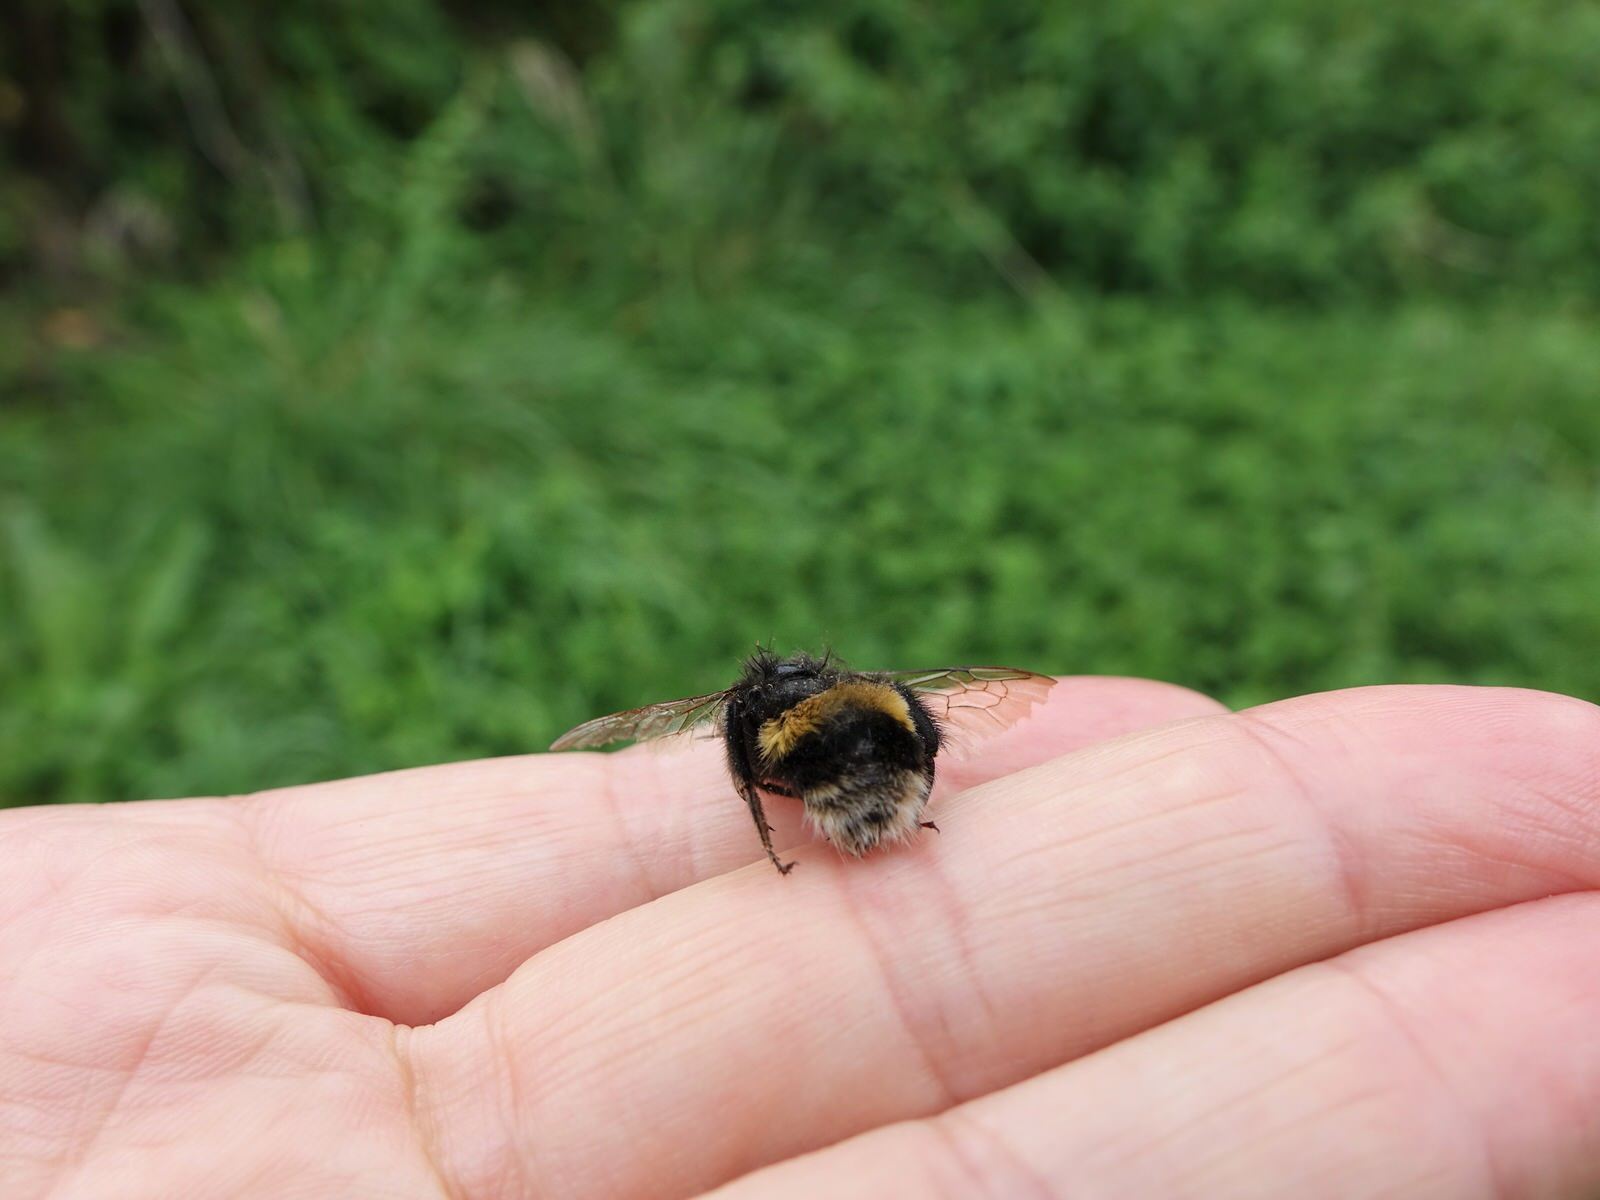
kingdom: Animalia
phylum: Arthropoda
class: Insecta
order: Hymenoptera
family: Apidae
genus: Bombus
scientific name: Bombus terrestris
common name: Buff-tailed bumblebee
